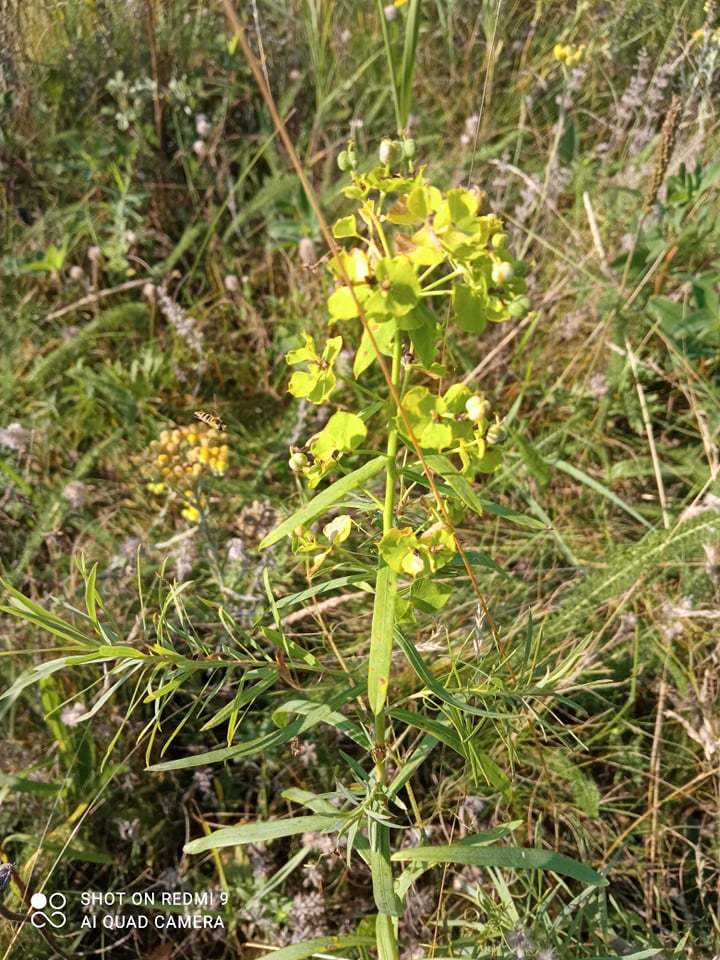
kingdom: Plantae
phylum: Tracheophyta
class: Magnoliopsida
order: Malpighiales
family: Euphorbiaceae
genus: Euphorbia
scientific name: Euphorbia saratoi
